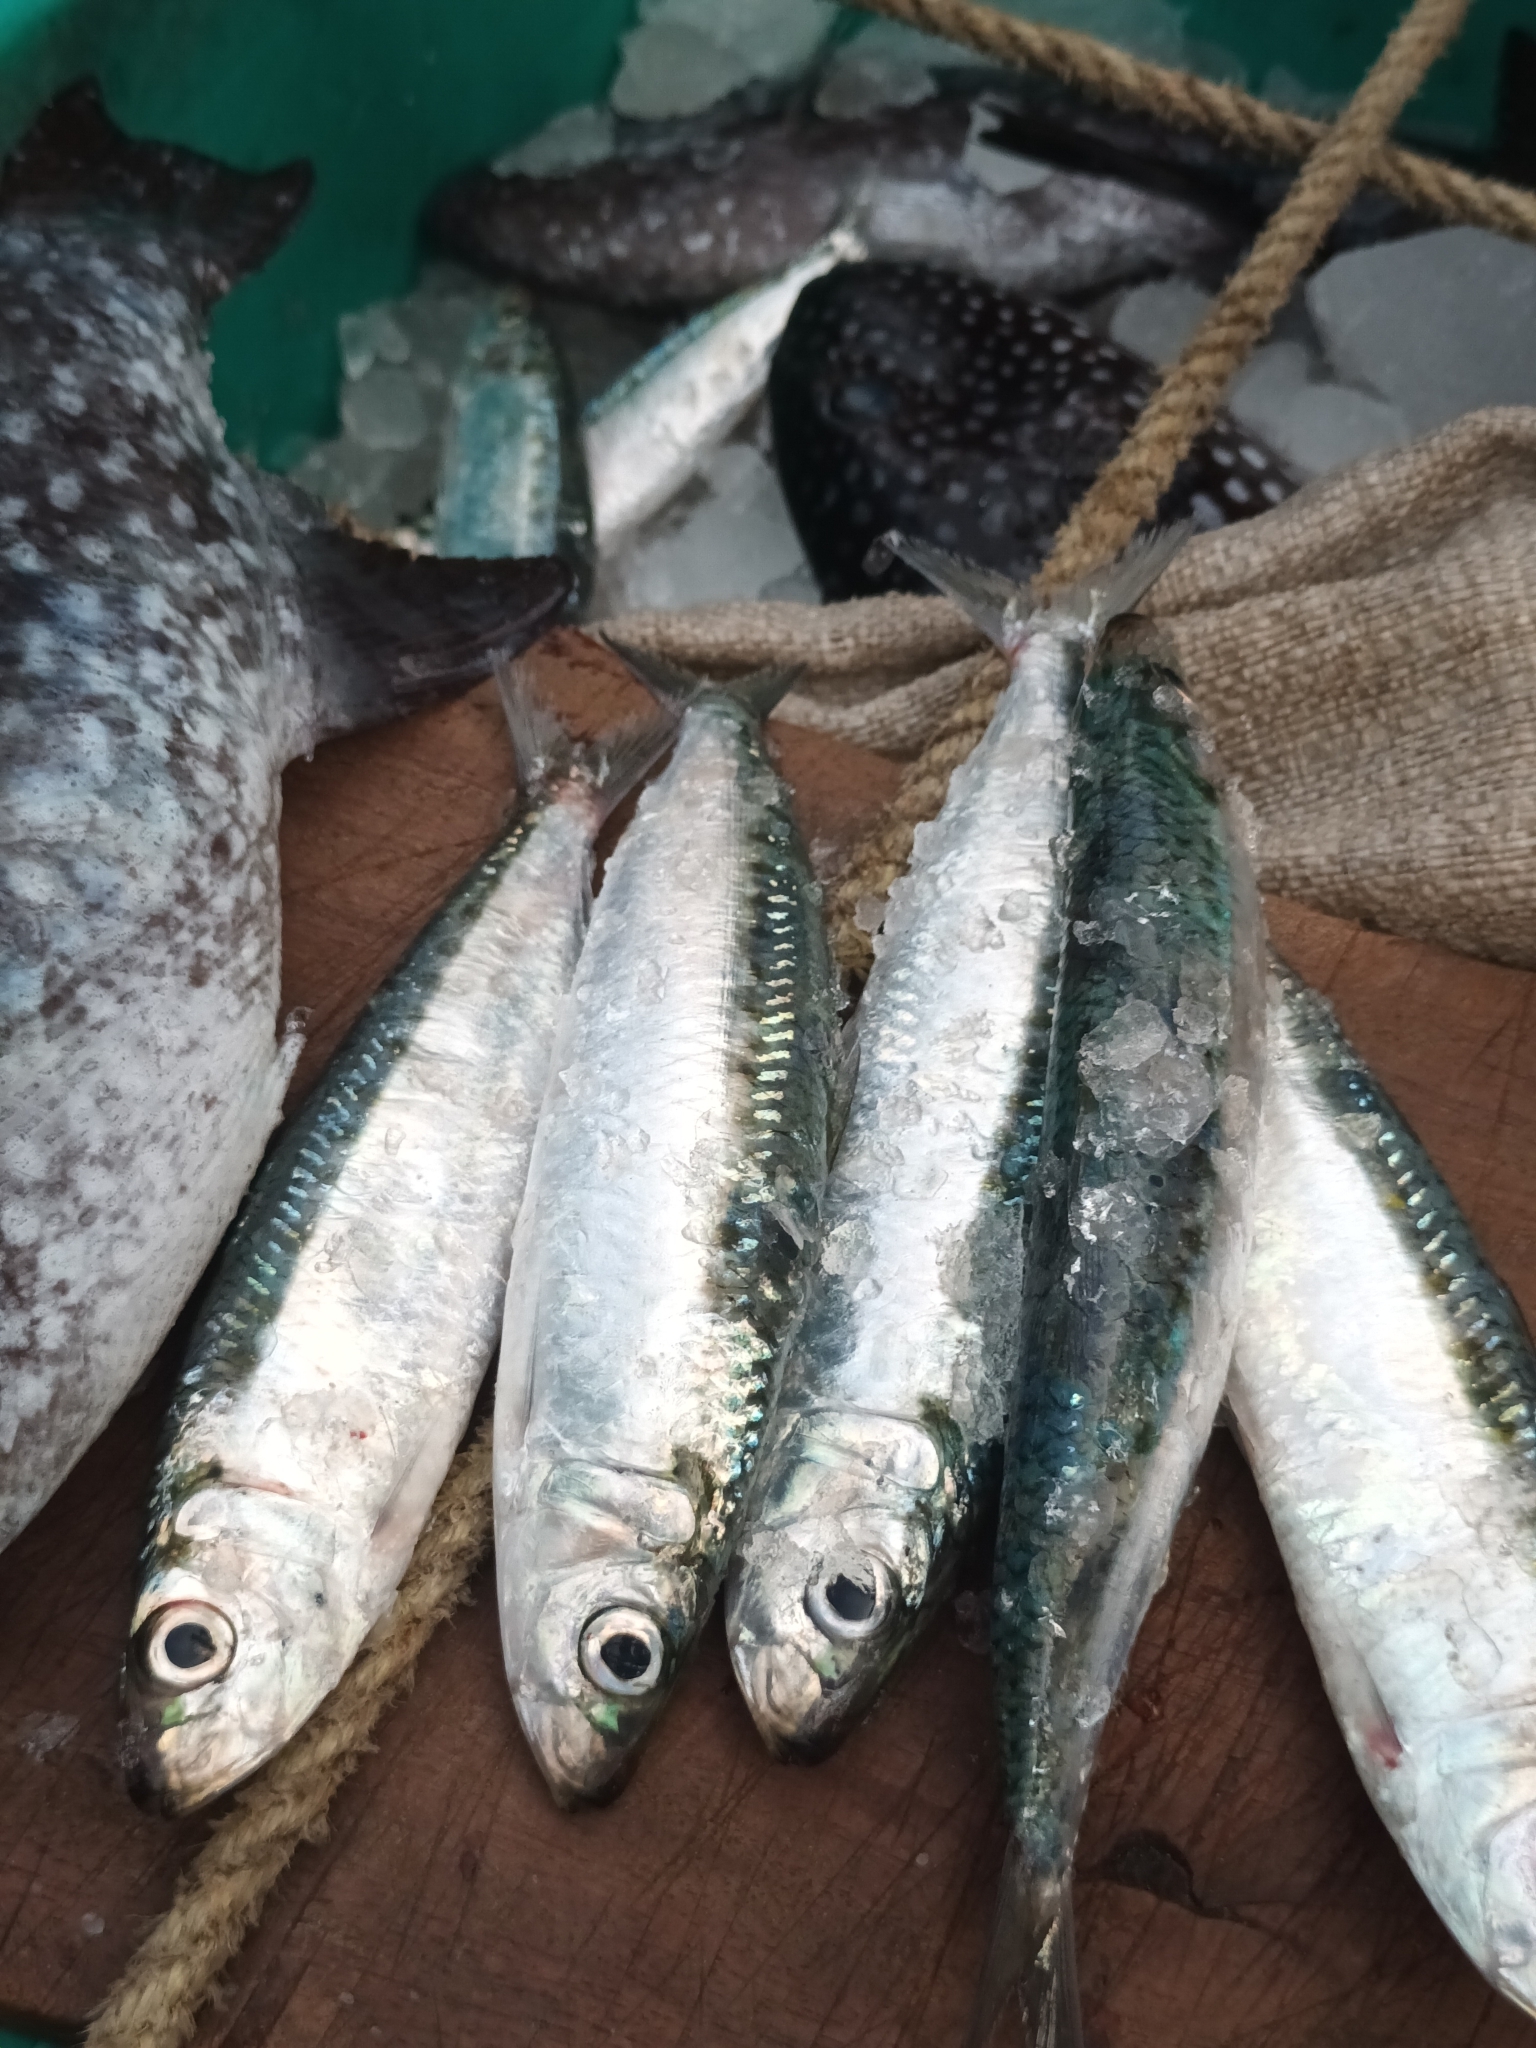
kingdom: Animalia
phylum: Chordata
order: Clupeiformes
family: Clupeidae
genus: Amblygaster
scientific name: Amblygaster sirm
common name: Spotted sardinella
